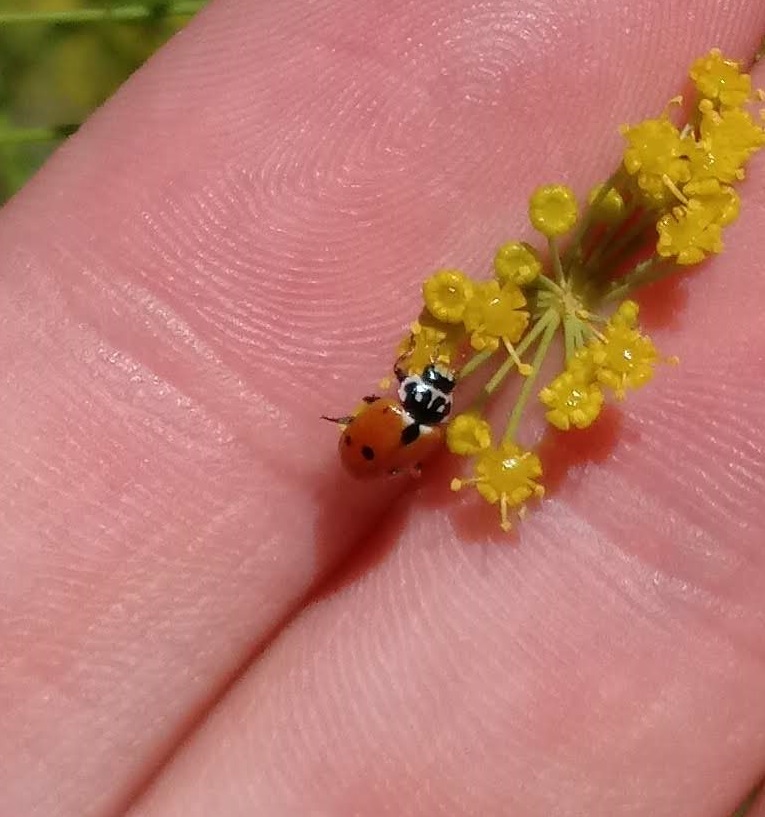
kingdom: Animalia
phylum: Arthropoda
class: Insecta
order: Coleoptera
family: Coccinellidae
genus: Hippodamia
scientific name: Hippodamia variegata
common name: Ladybird beetle
